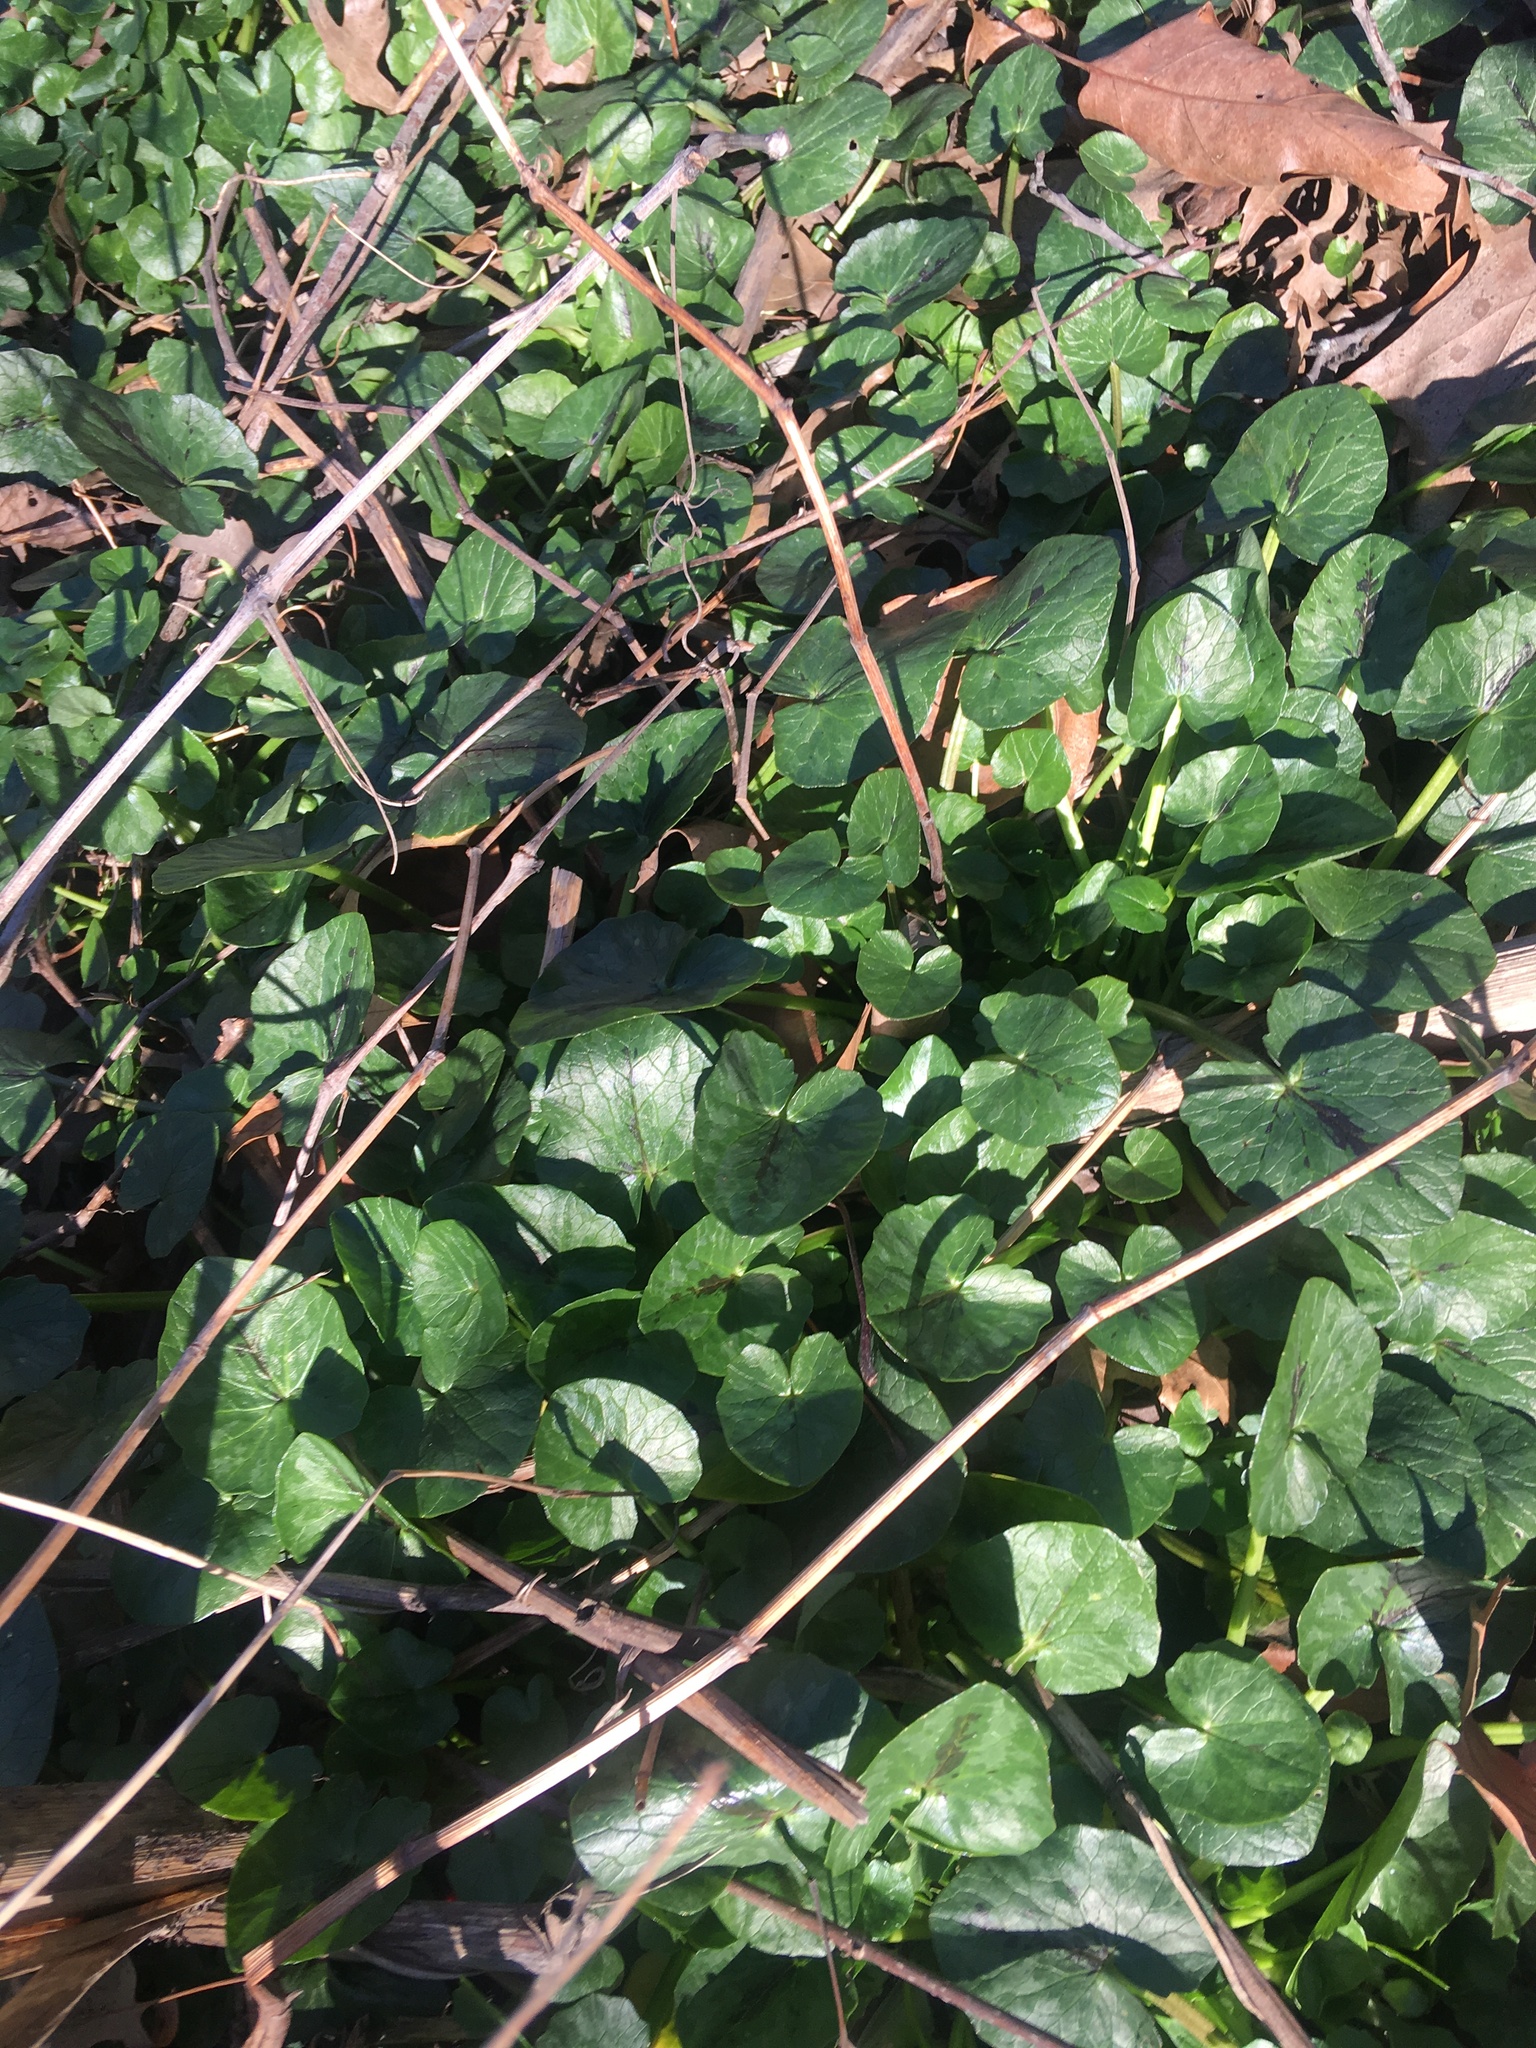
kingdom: Plantae
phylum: Tracheophyta
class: Magnoliopsida
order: Ranunculales
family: Ranunculaceae
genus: Ficaria
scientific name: Ficaria verna
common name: Lesser celandine
